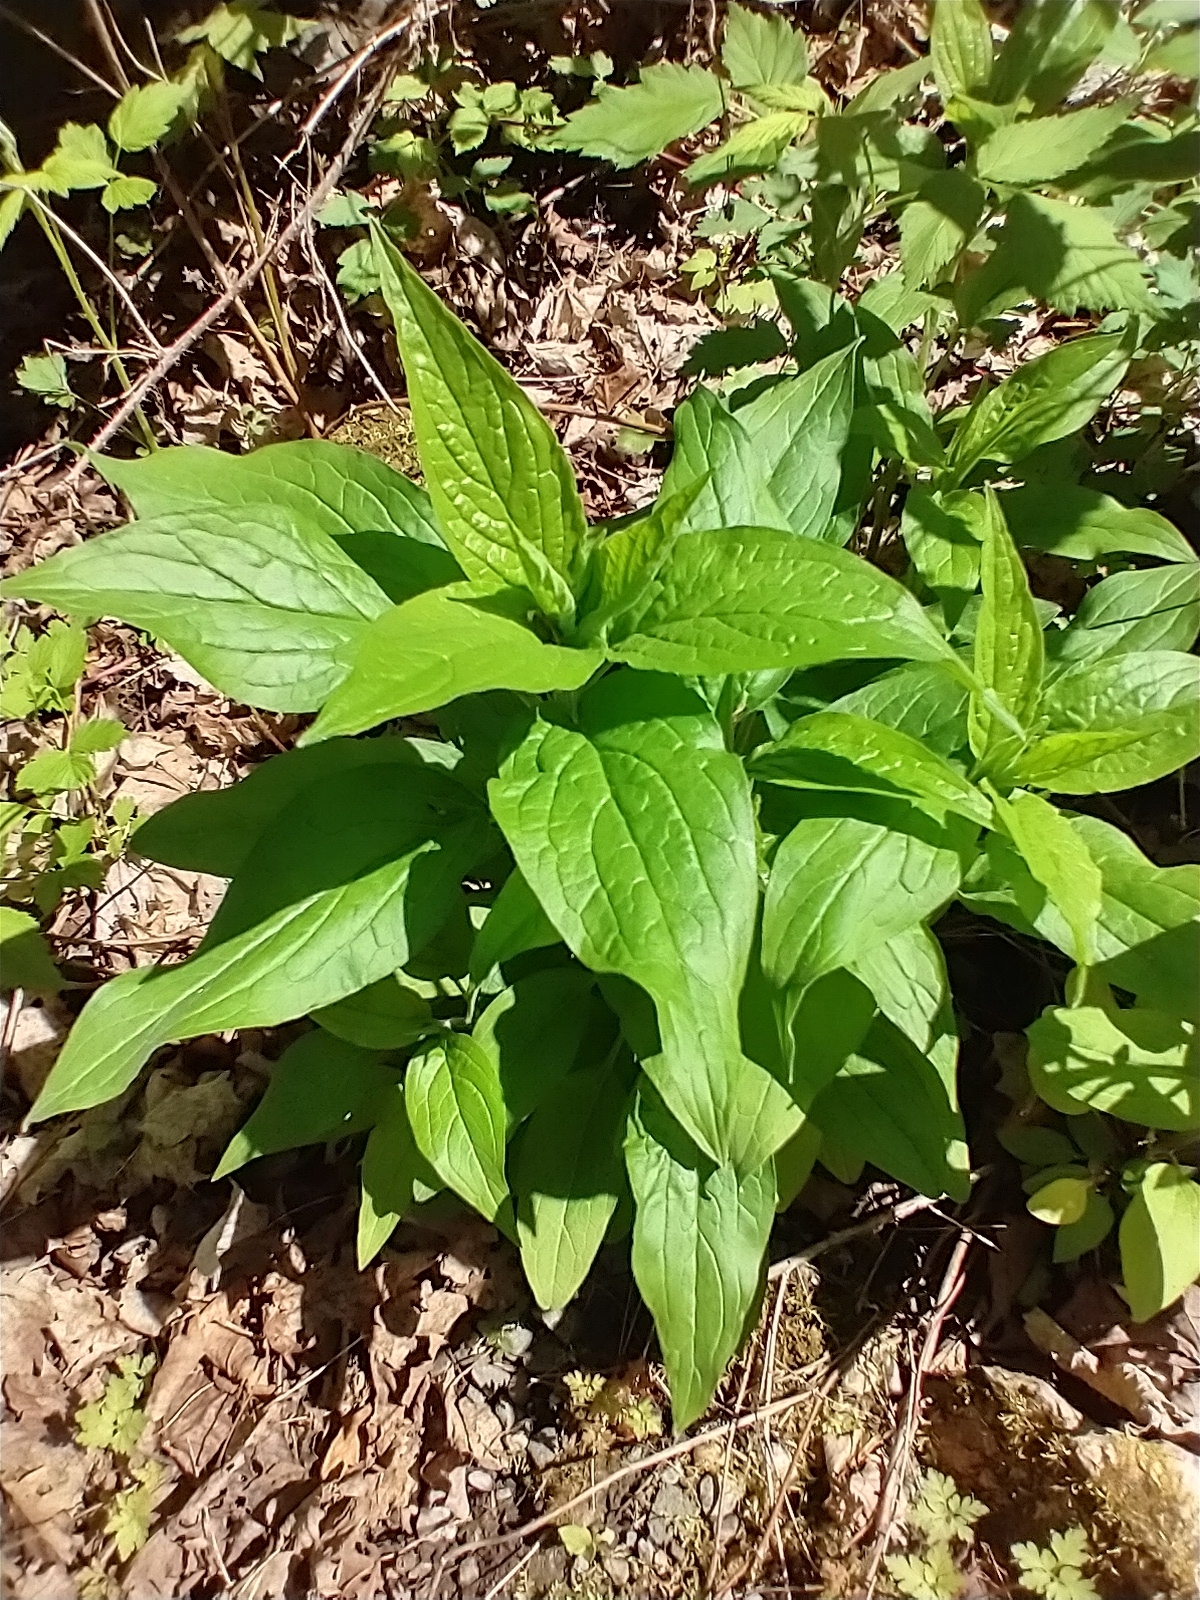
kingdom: Plantae
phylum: Tracheophyta
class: Magnoliopsida
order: Boraginales
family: Boraginaceae
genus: Hackelia
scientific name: Hackelia virginiana
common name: Beggar's-lice
